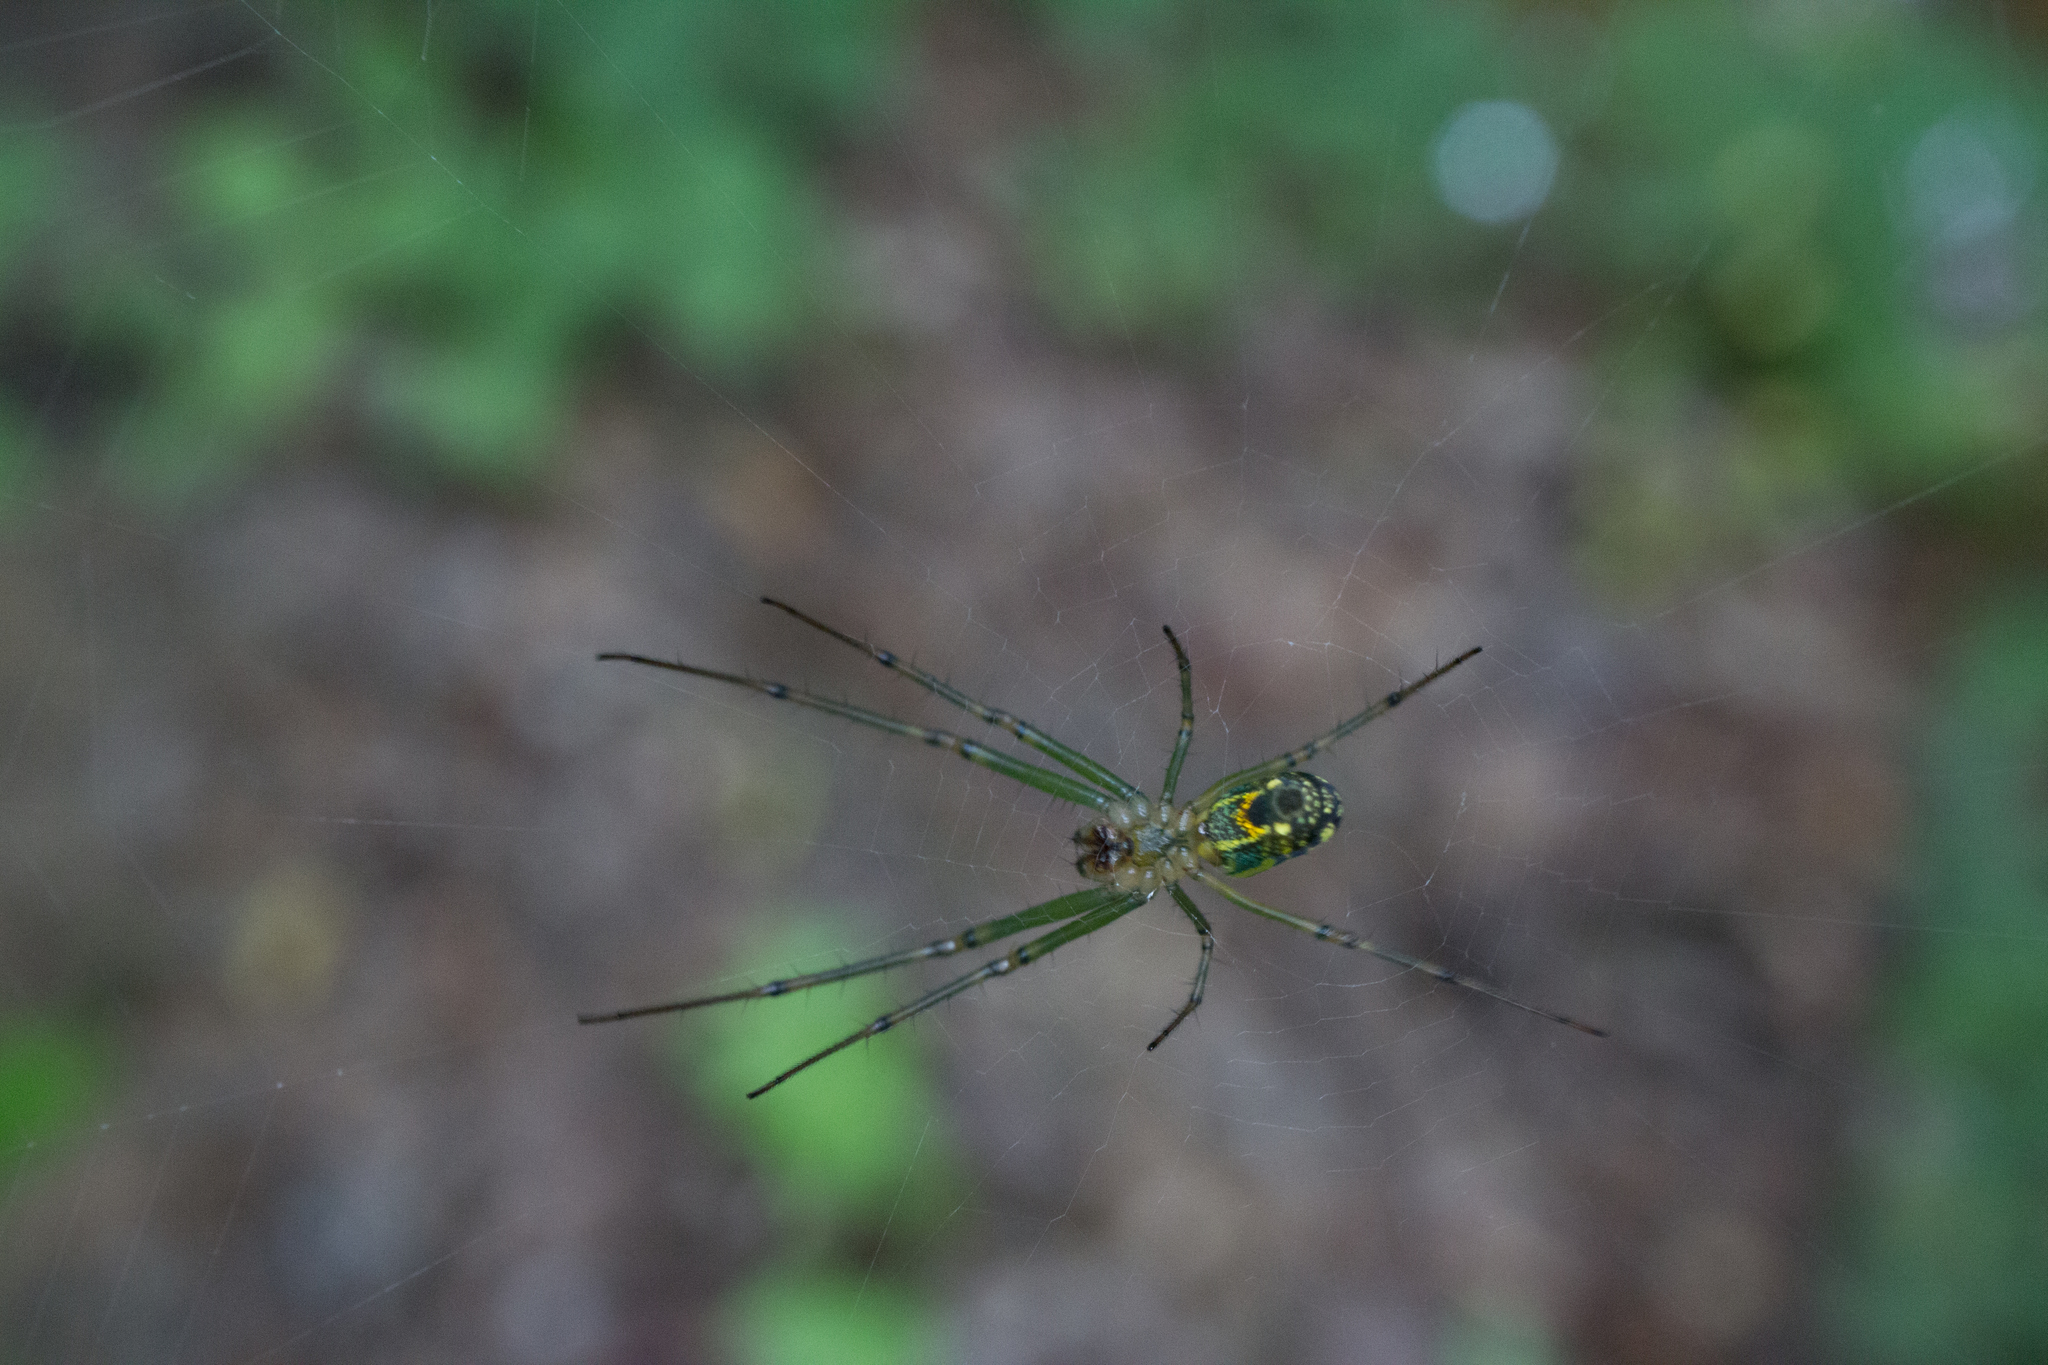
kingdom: Animalia
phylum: Arthropoda
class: Arachnida
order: Araneae
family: Tetragnathidae
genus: Leucauge
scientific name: Leucauge venusta
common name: Longjawed orb weavers
